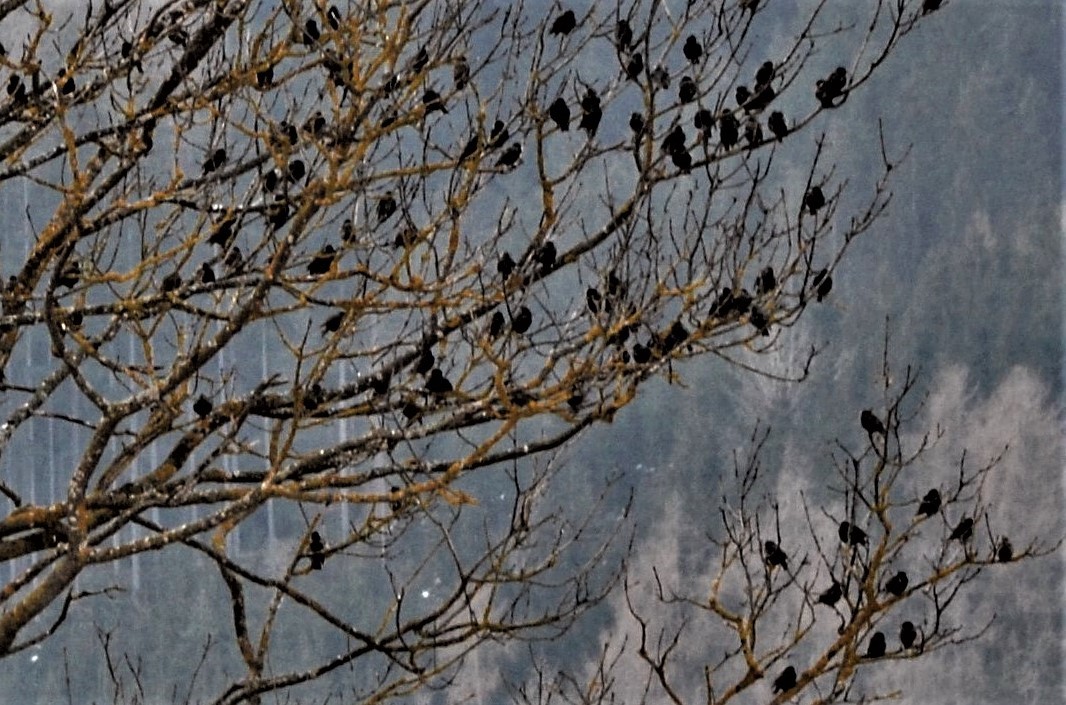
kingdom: Animalia
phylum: Chordata
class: Aves
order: Passeriformes
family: Sturnidae
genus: Sturnus
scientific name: Sturnus vulgaris
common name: Common starling
